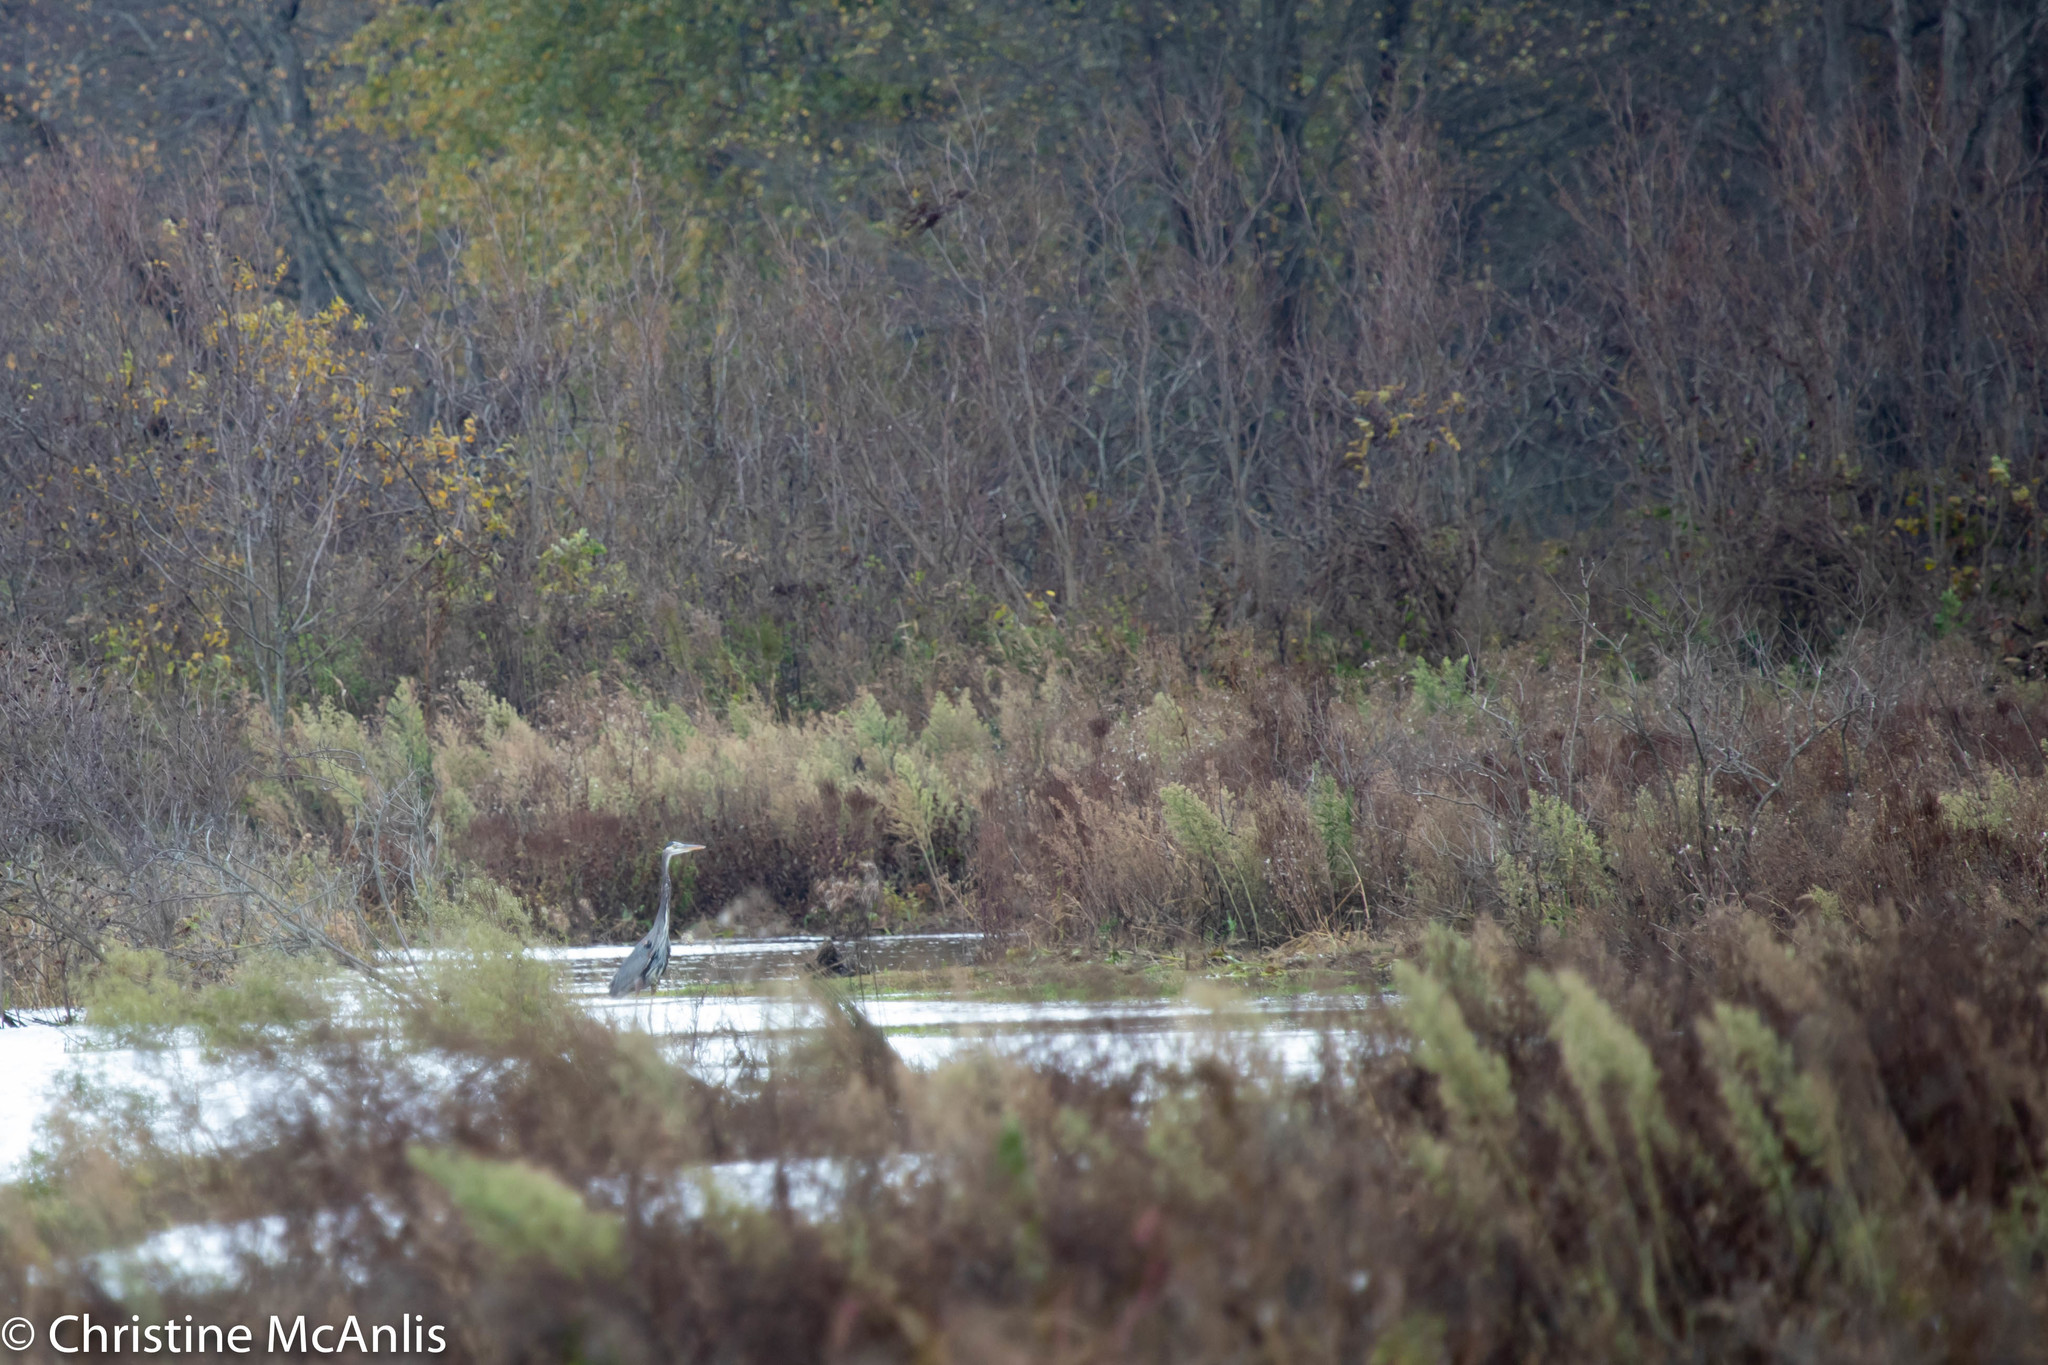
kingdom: Animalia
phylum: Chordata
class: Aves
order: Pelecaniformes
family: Ardeidae
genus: Ardea
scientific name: Ardea herodias
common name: Great blue heron
